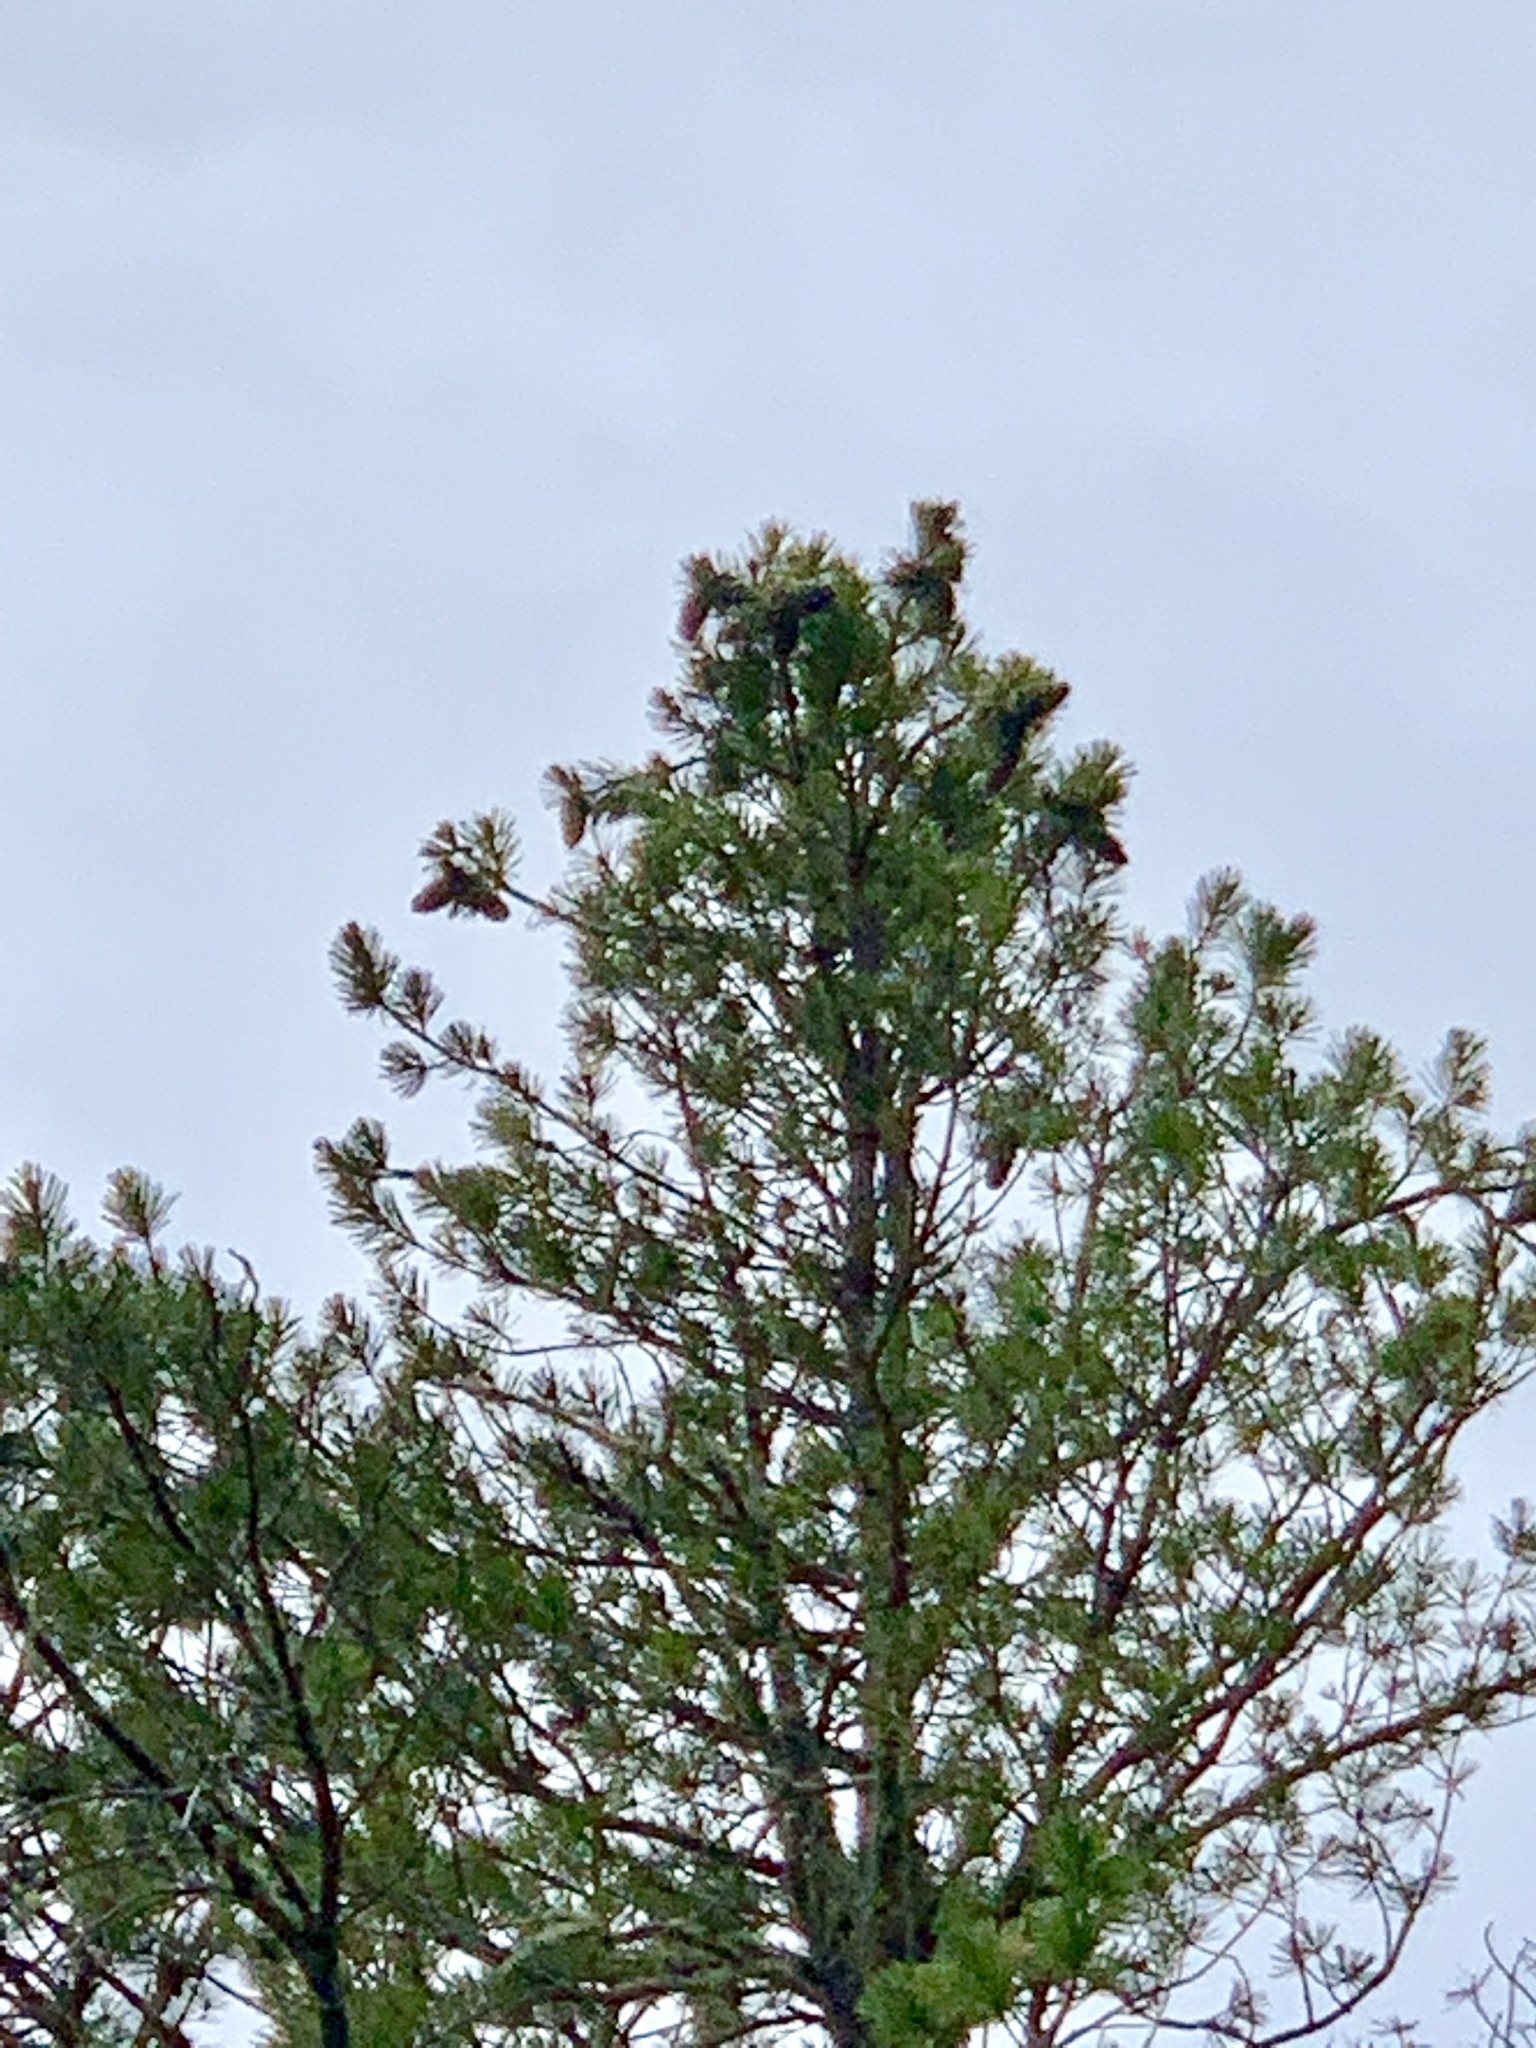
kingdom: Plantae
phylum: Tracheophyta
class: Pinopsida
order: Pinales
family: Pinaceae
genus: Pinus
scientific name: Pinus strobiformis
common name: Southwestern white pine
